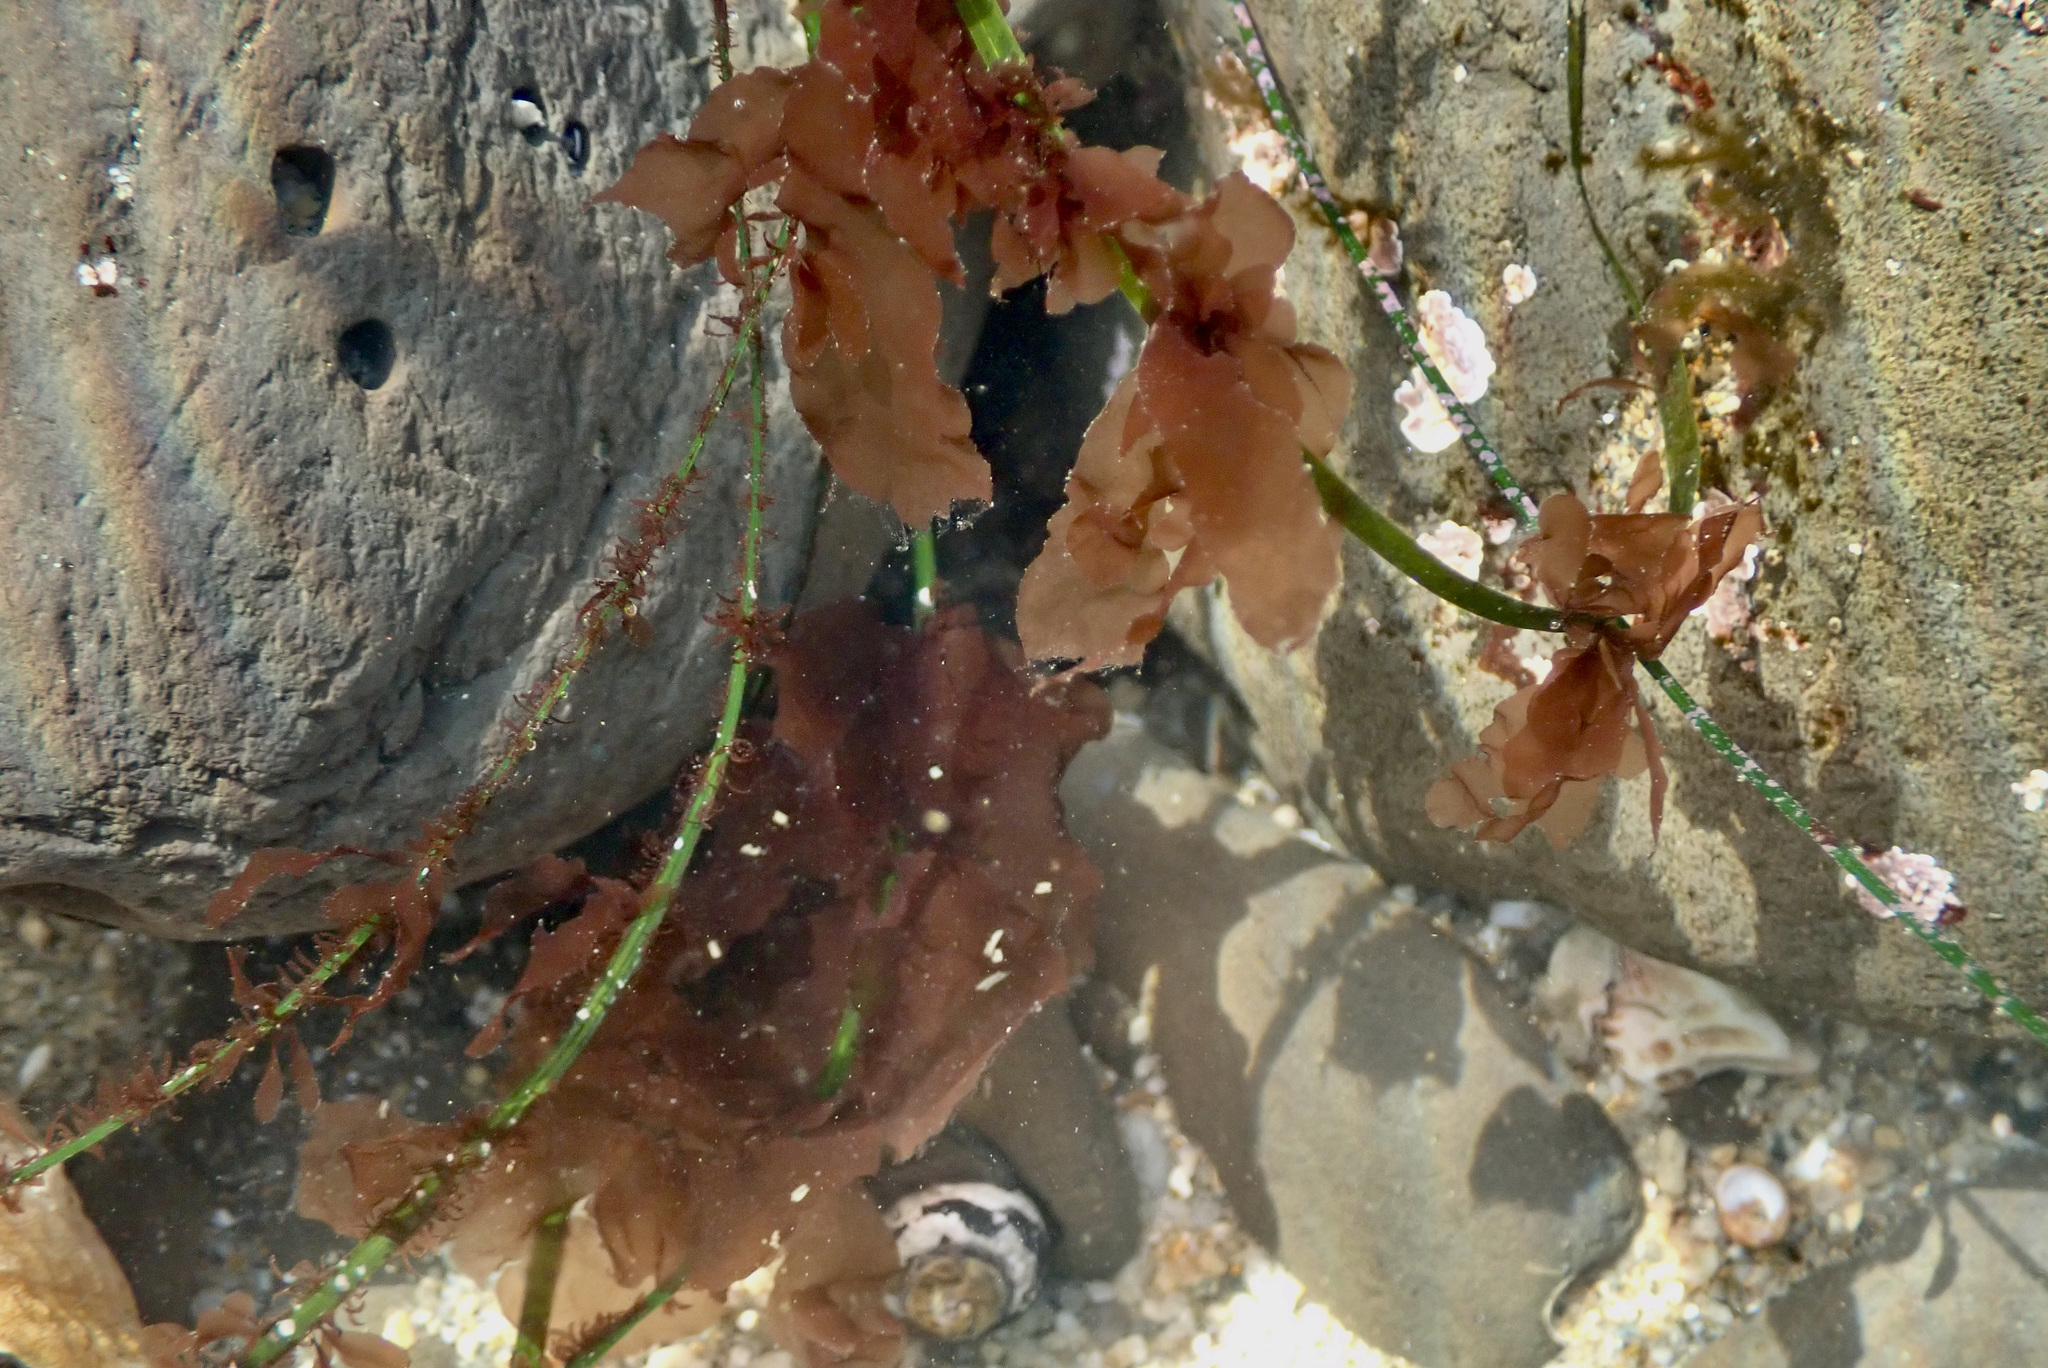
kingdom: Plantae
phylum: Rhodophyta
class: Compsopogonophyceae
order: Erythropeltidales
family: Erythrotrichiaceae
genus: Smithora
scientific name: Smithora naiadum
